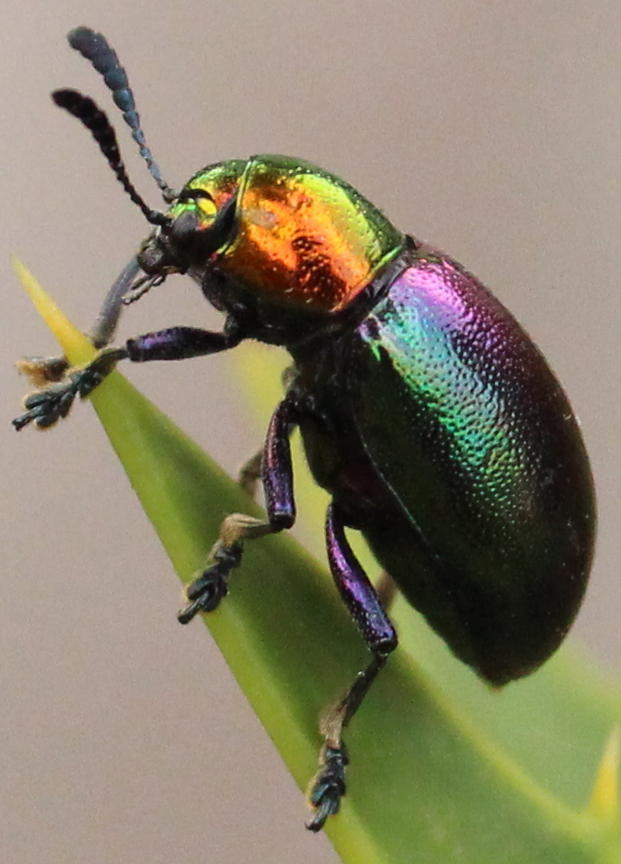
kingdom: Animalia
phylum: Arthropoda
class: Insecta
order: Coleoptera
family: Chrysomelidae
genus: Platycorynus
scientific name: Platycorynus dejeani
